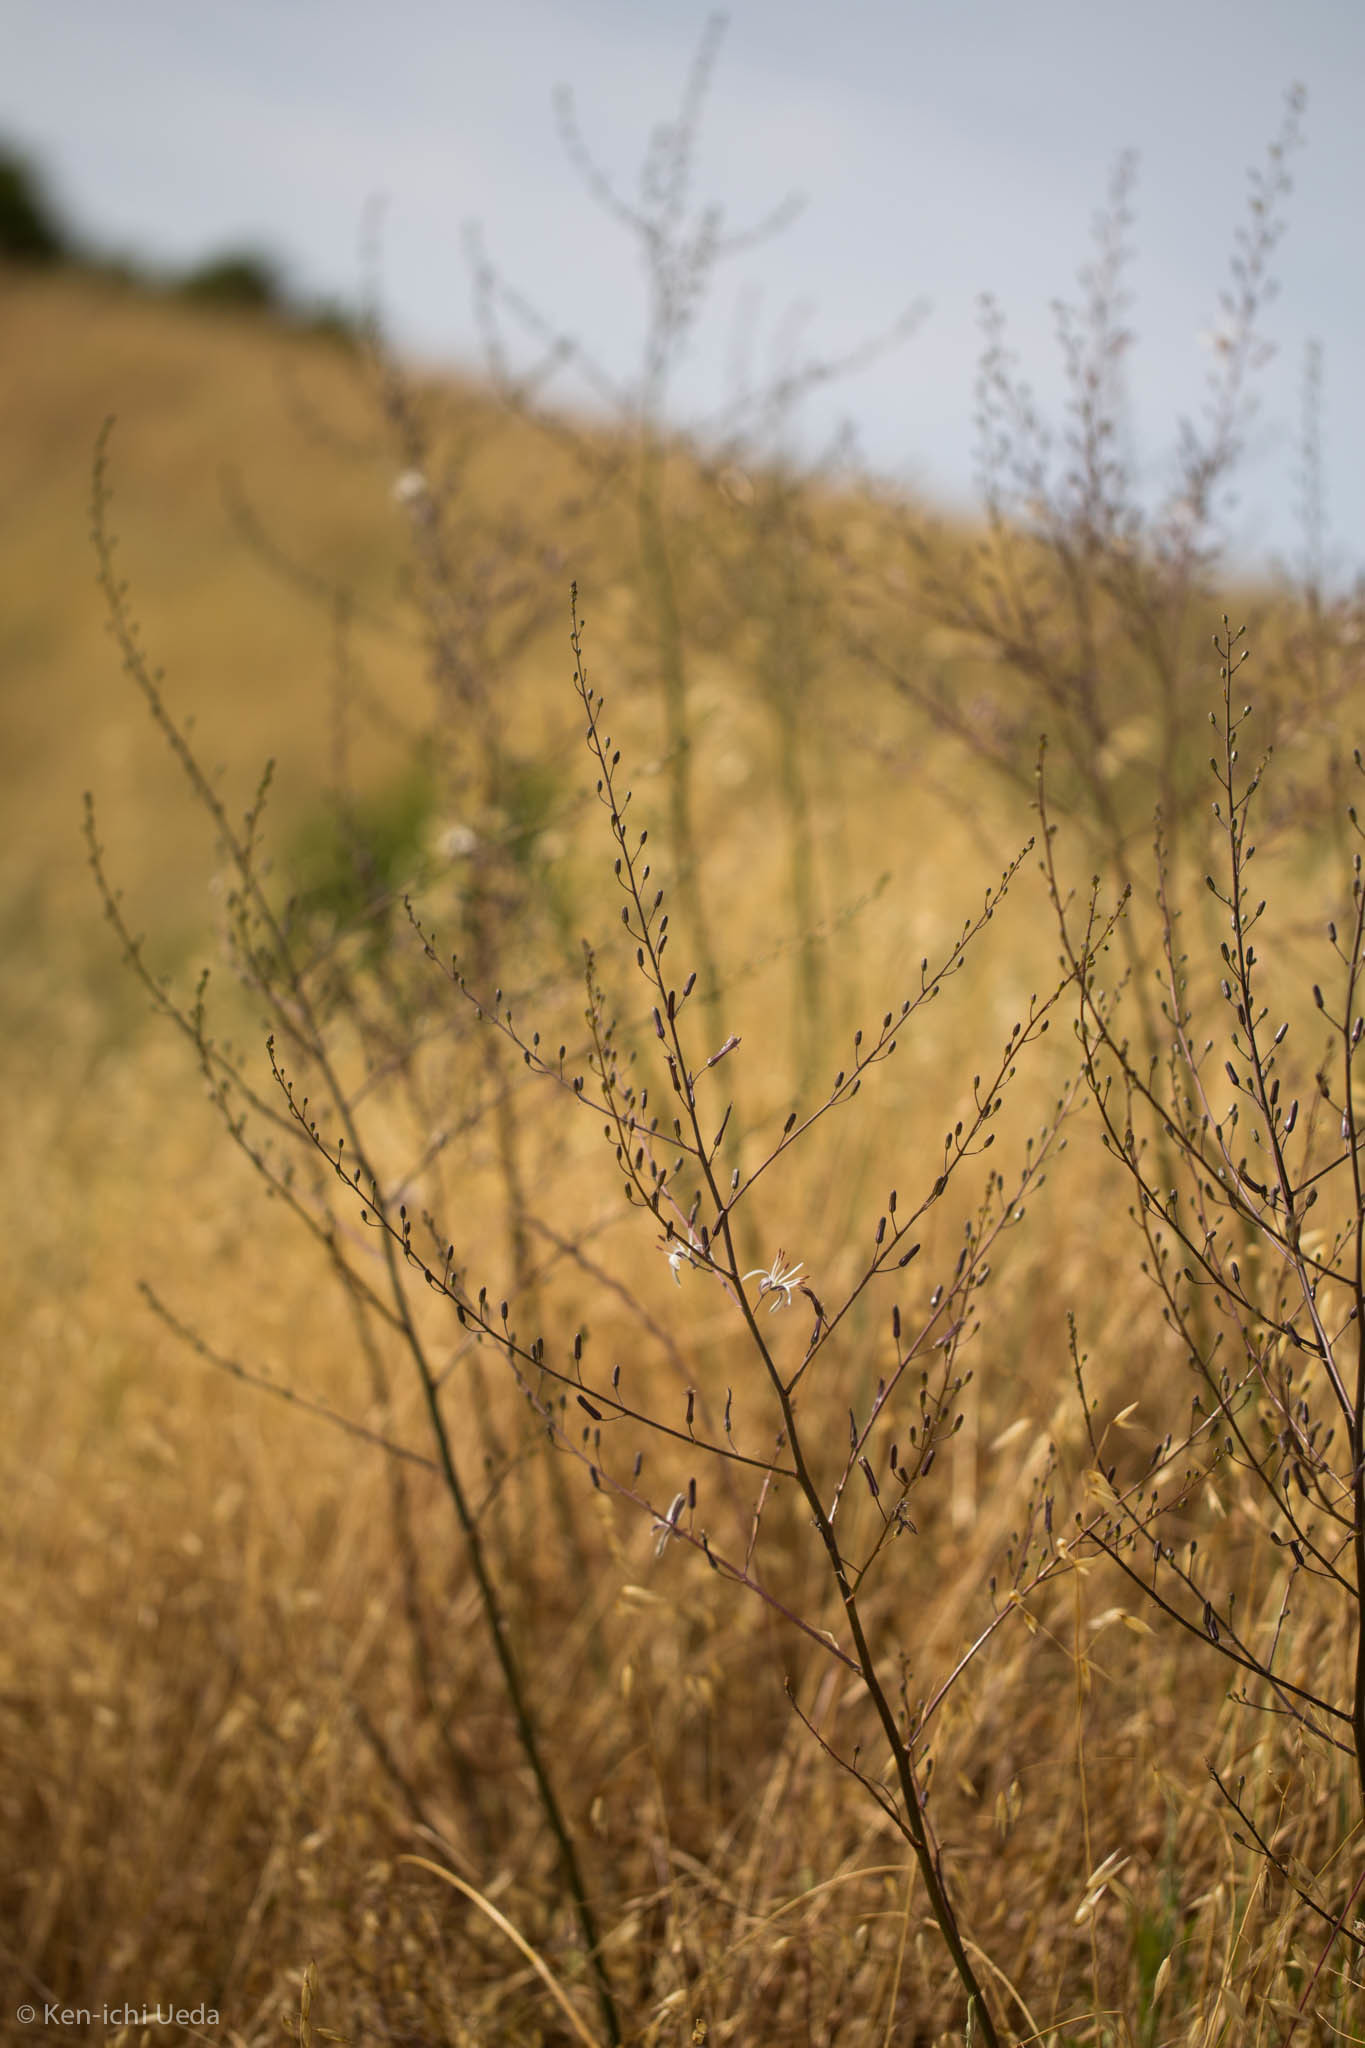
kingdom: Plantae
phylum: Tracheophyta
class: Liliopsida
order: Asparagales
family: Asparagaceae
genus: Chlorogalum
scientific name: Chlorogalum pomeridianum
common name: Amole
